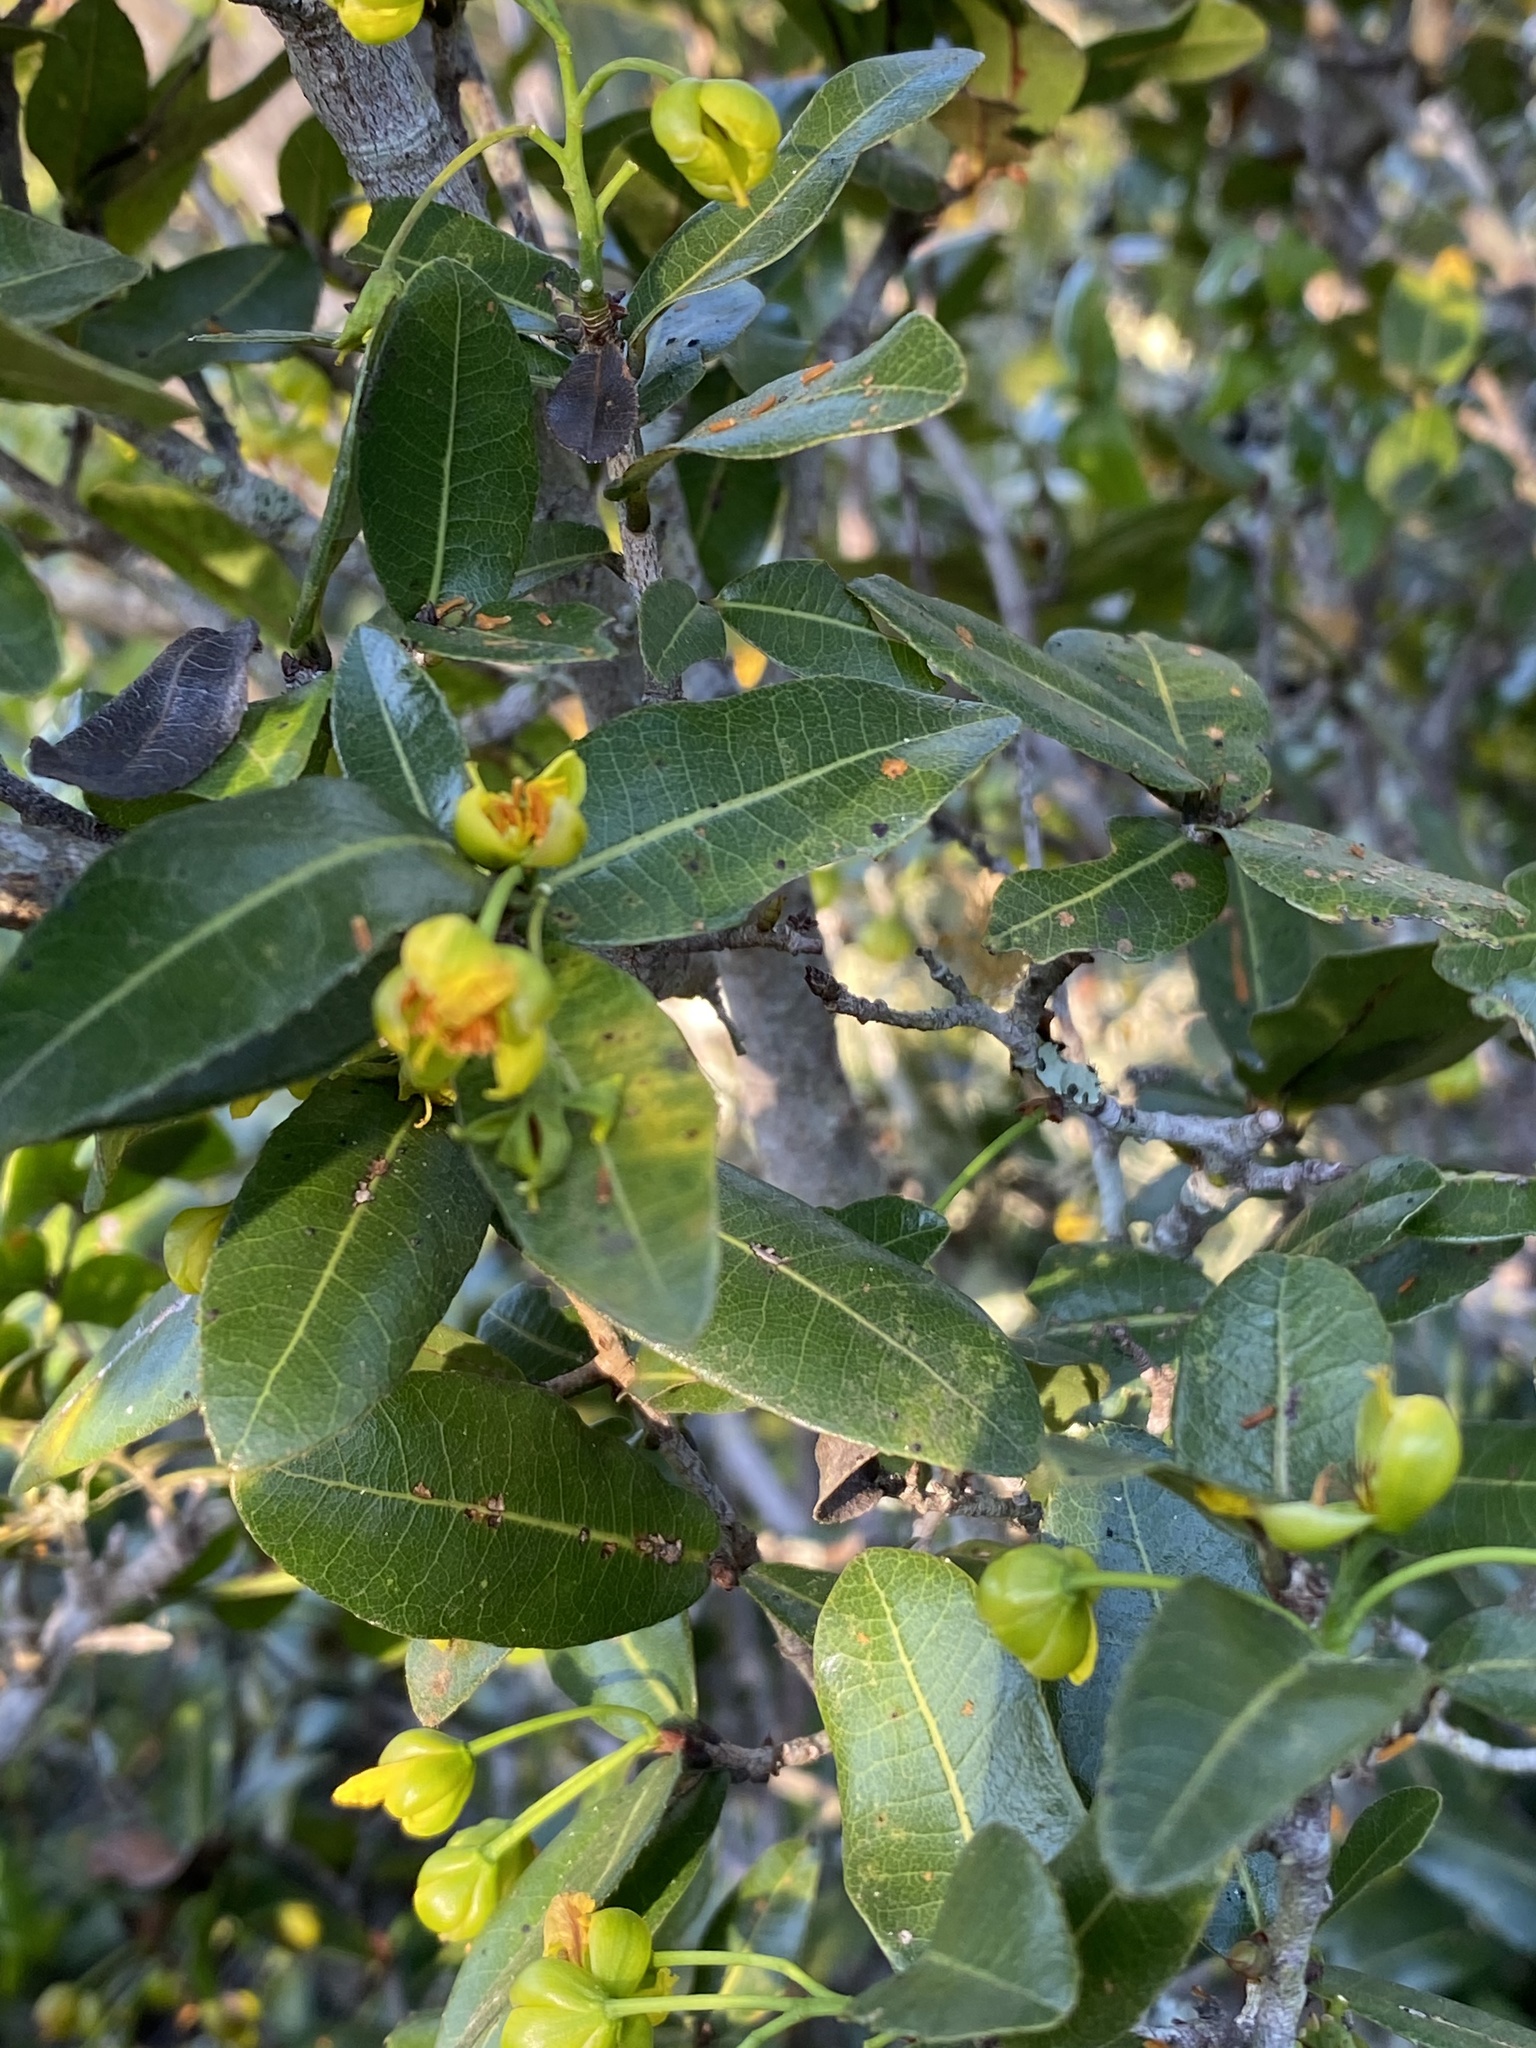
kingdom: Plantae
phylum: Tracheophyta
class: Magnoliopsida
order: Malpighiales
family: Ochnaceae
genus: Ochna
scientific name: Ochna arborea
